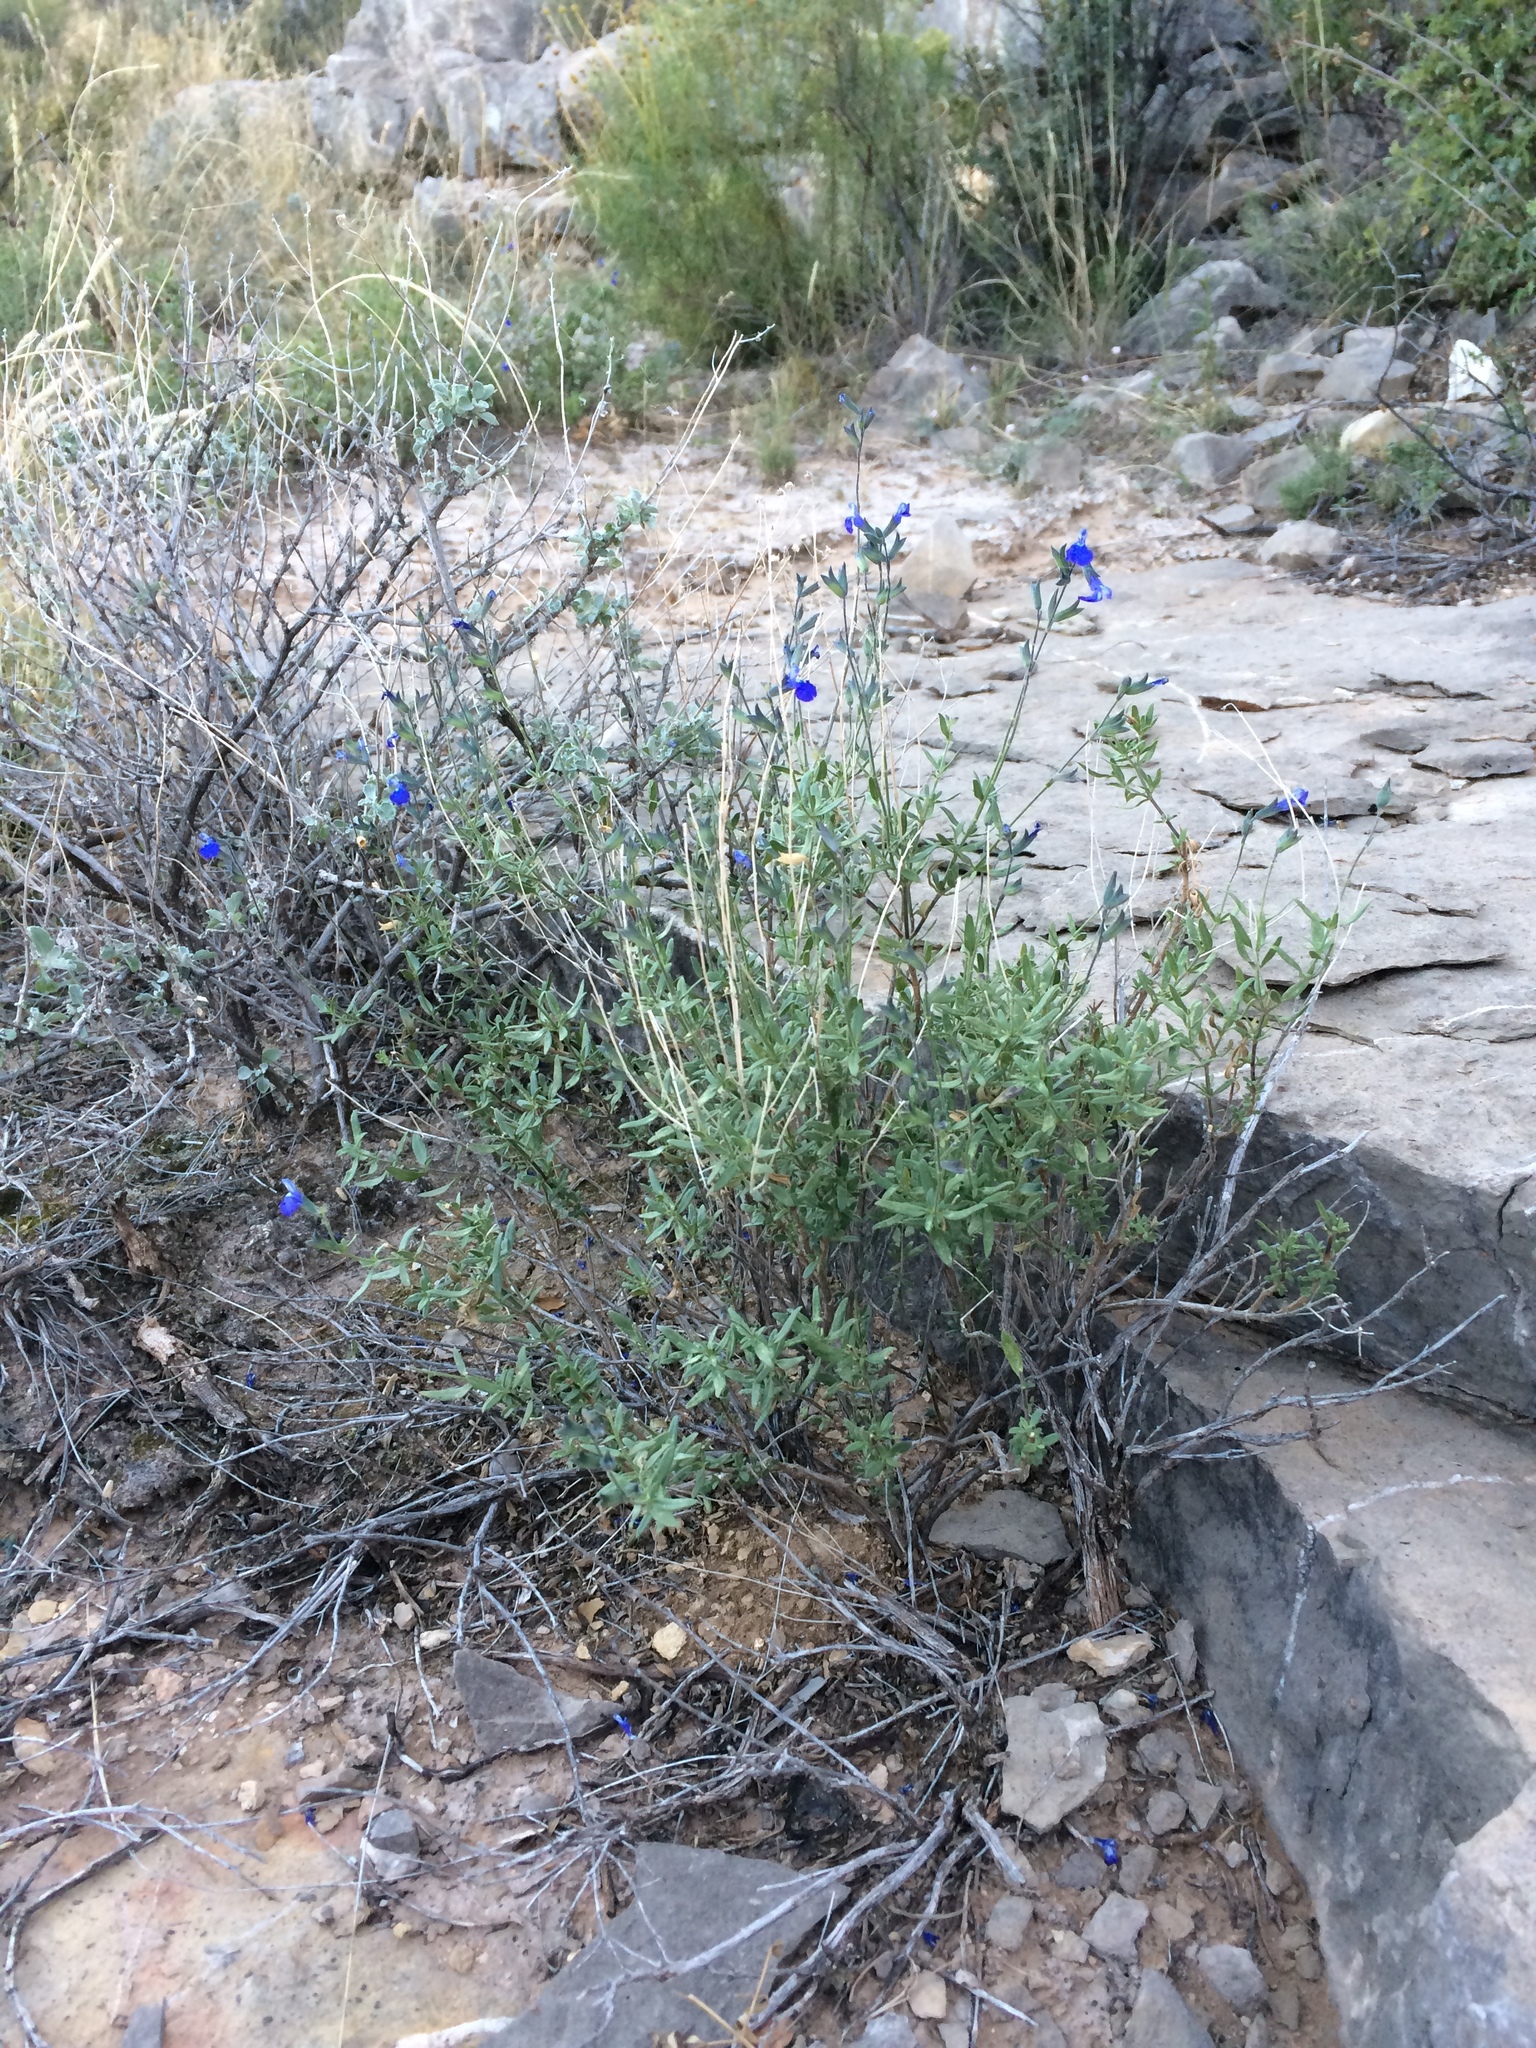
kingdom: Plantae
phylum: Tracheophyta
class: Magnoliopsida
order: Lamiales
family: Lamiaceae
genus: Salvia
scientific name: Salvia lycioides
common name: Canyon sage
